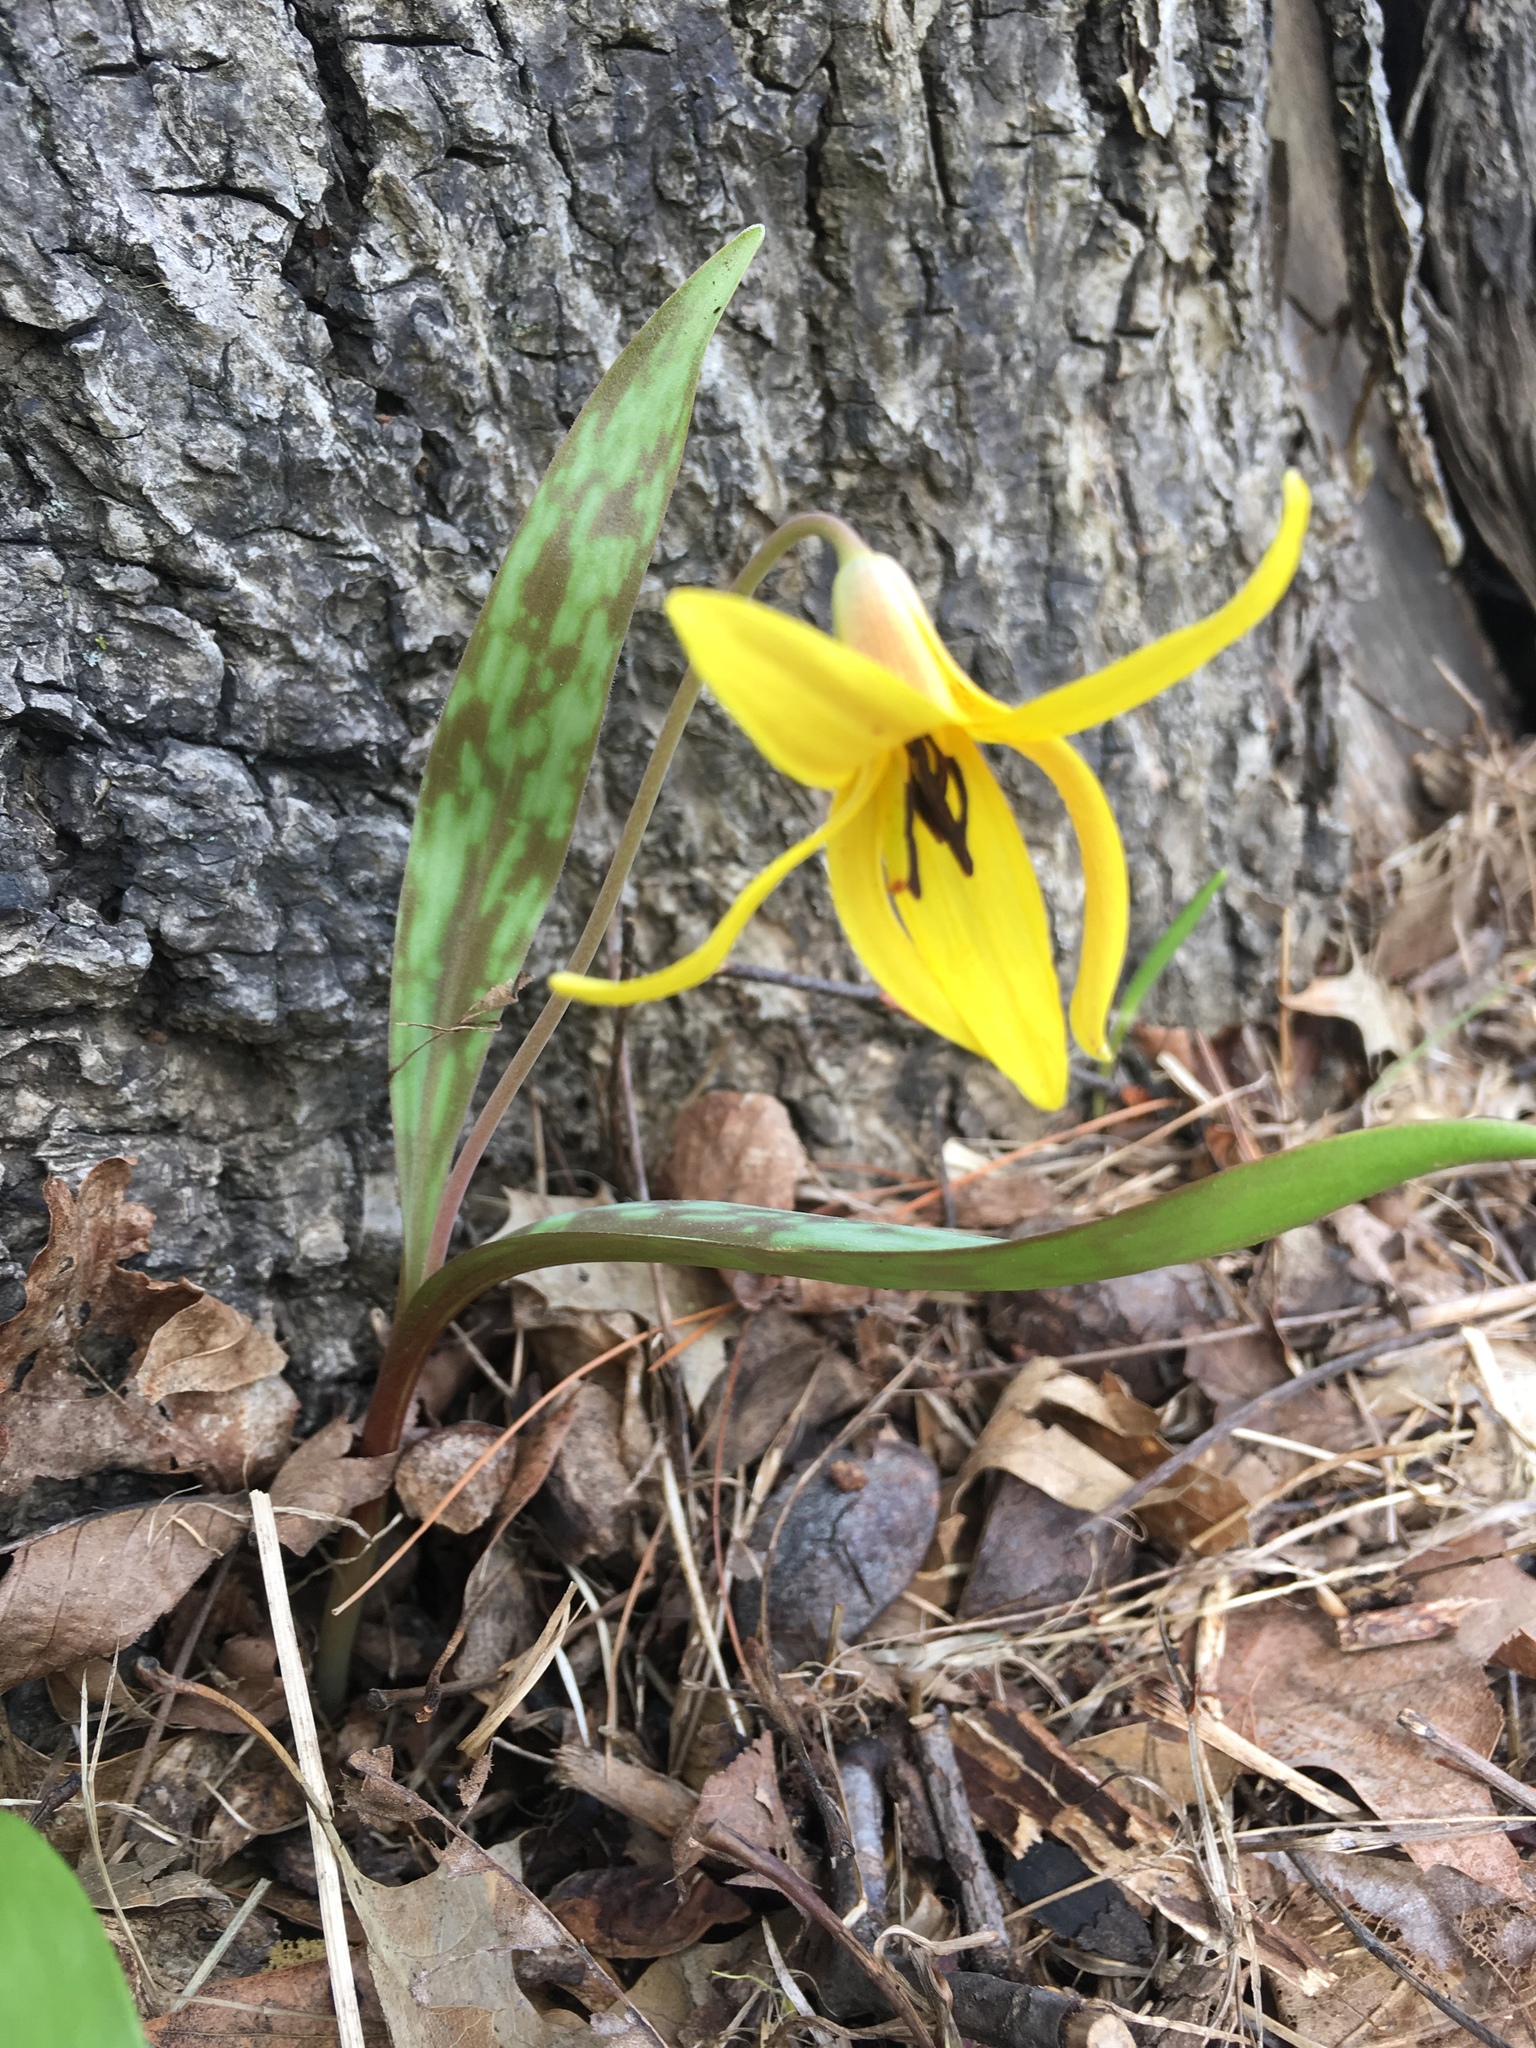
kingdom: Plantae
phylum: Tracheophyta
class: Liliopsida
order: Liliales
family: Liliaceae
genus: Erythronium
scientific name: Erythronium americanum
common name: Yellow adder's-tongue
